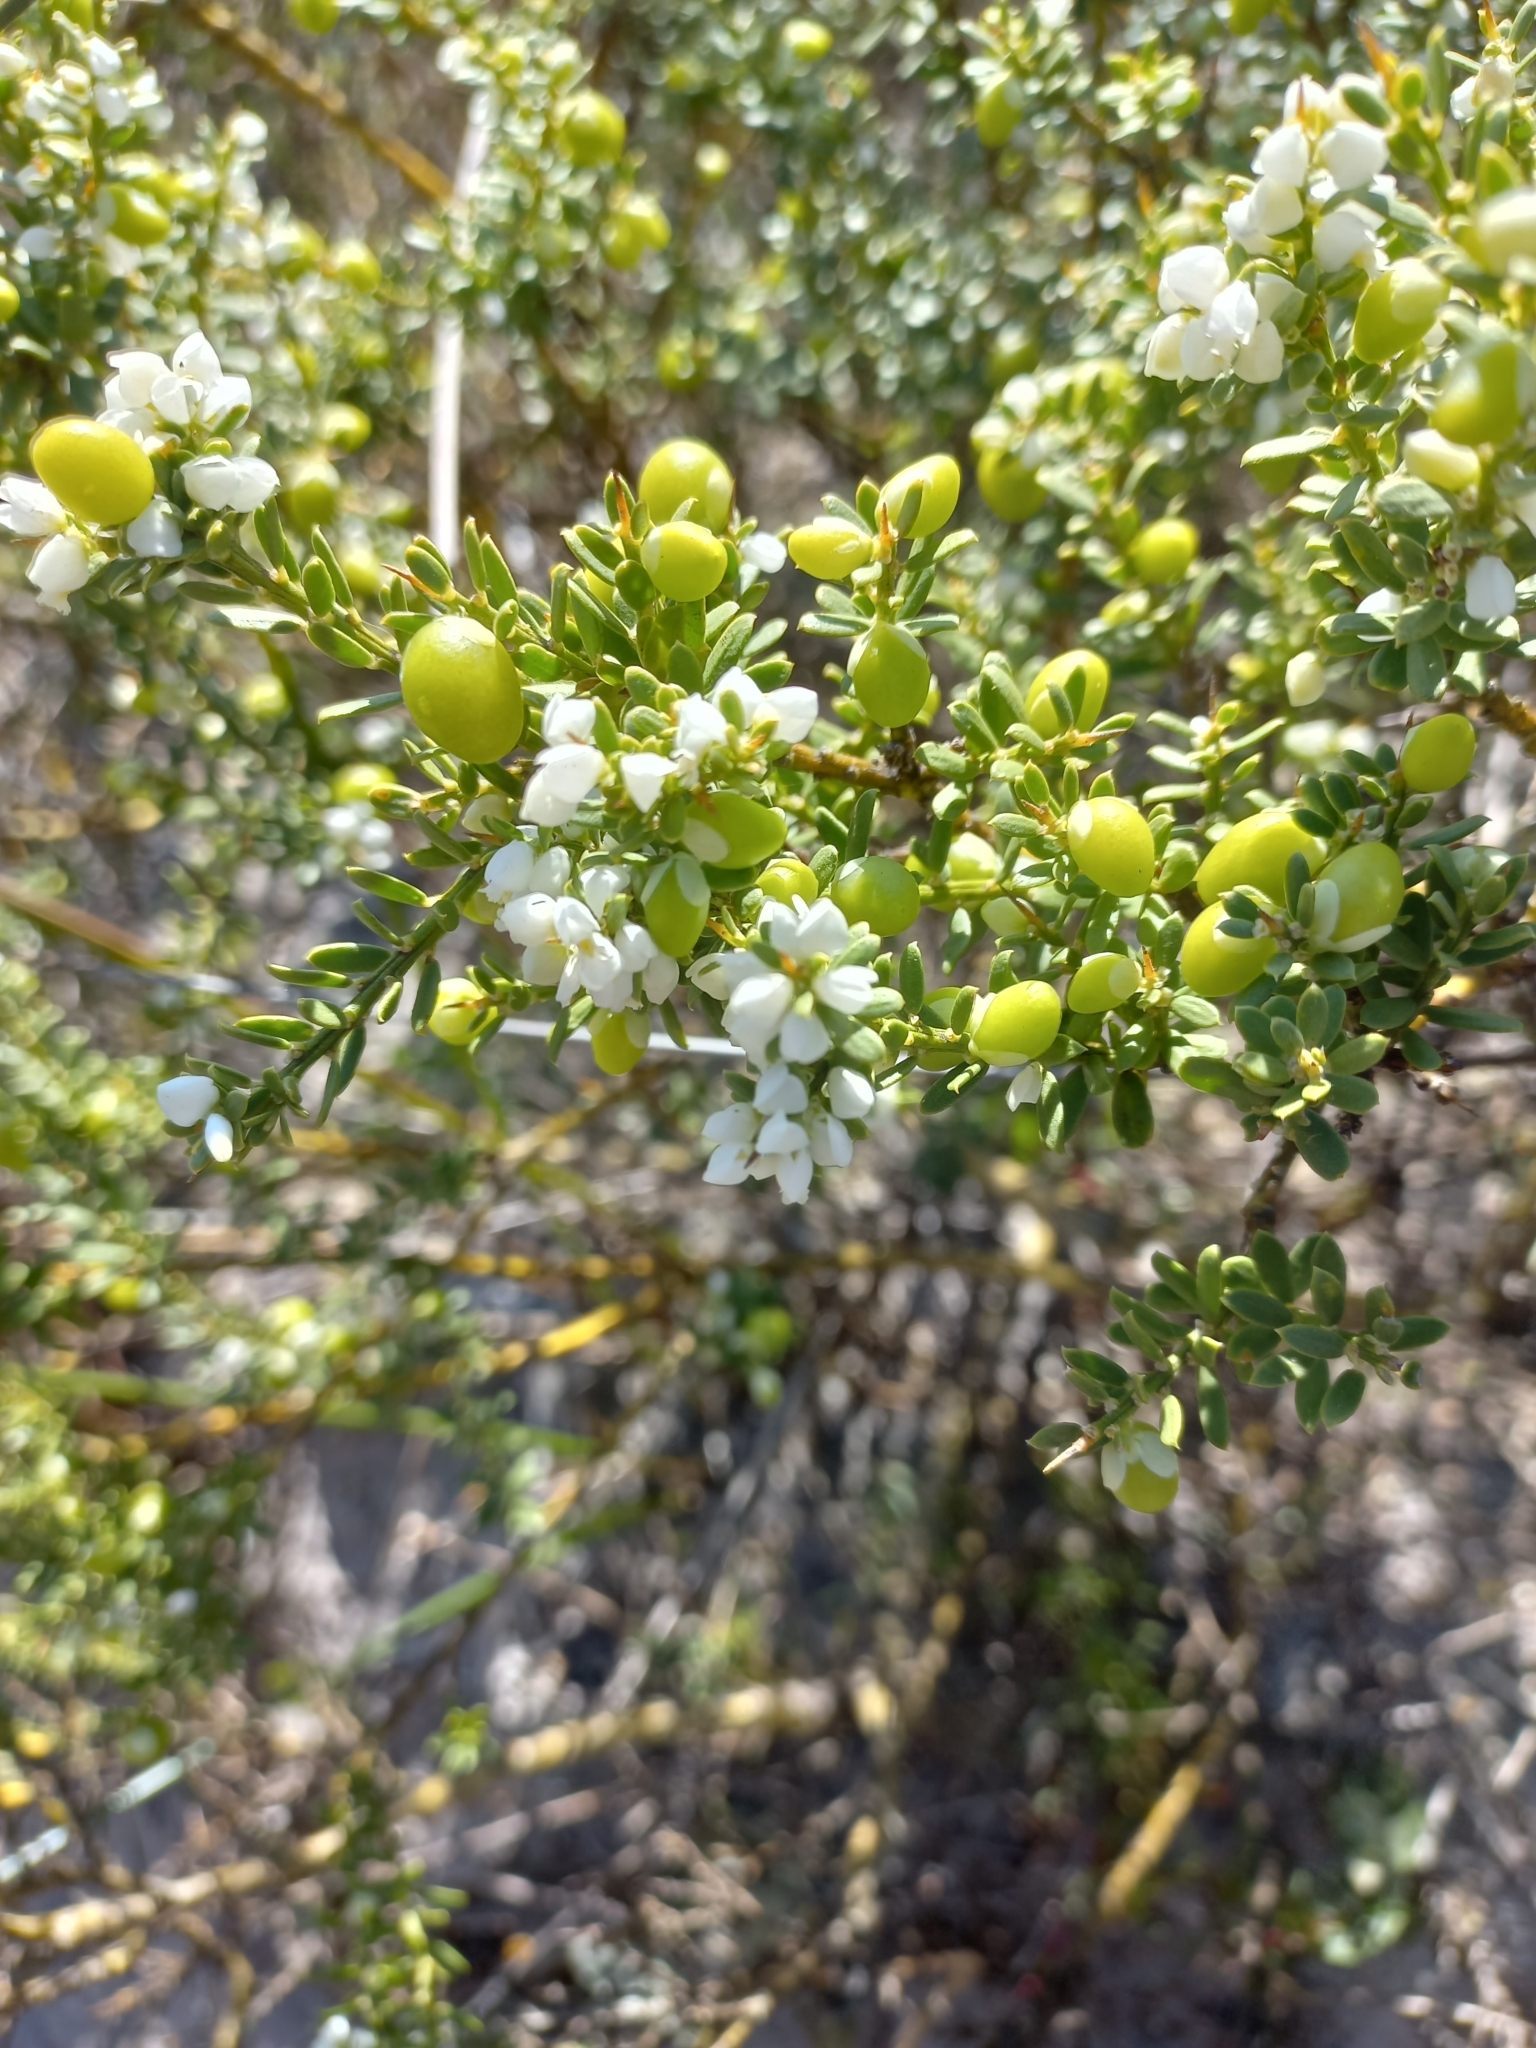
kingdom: Plantae
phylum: Tracheophyta
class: Magnoliopsida
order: Fabales
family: Polygalaceae
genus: Muraltia
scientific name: Muraltia spinosa
